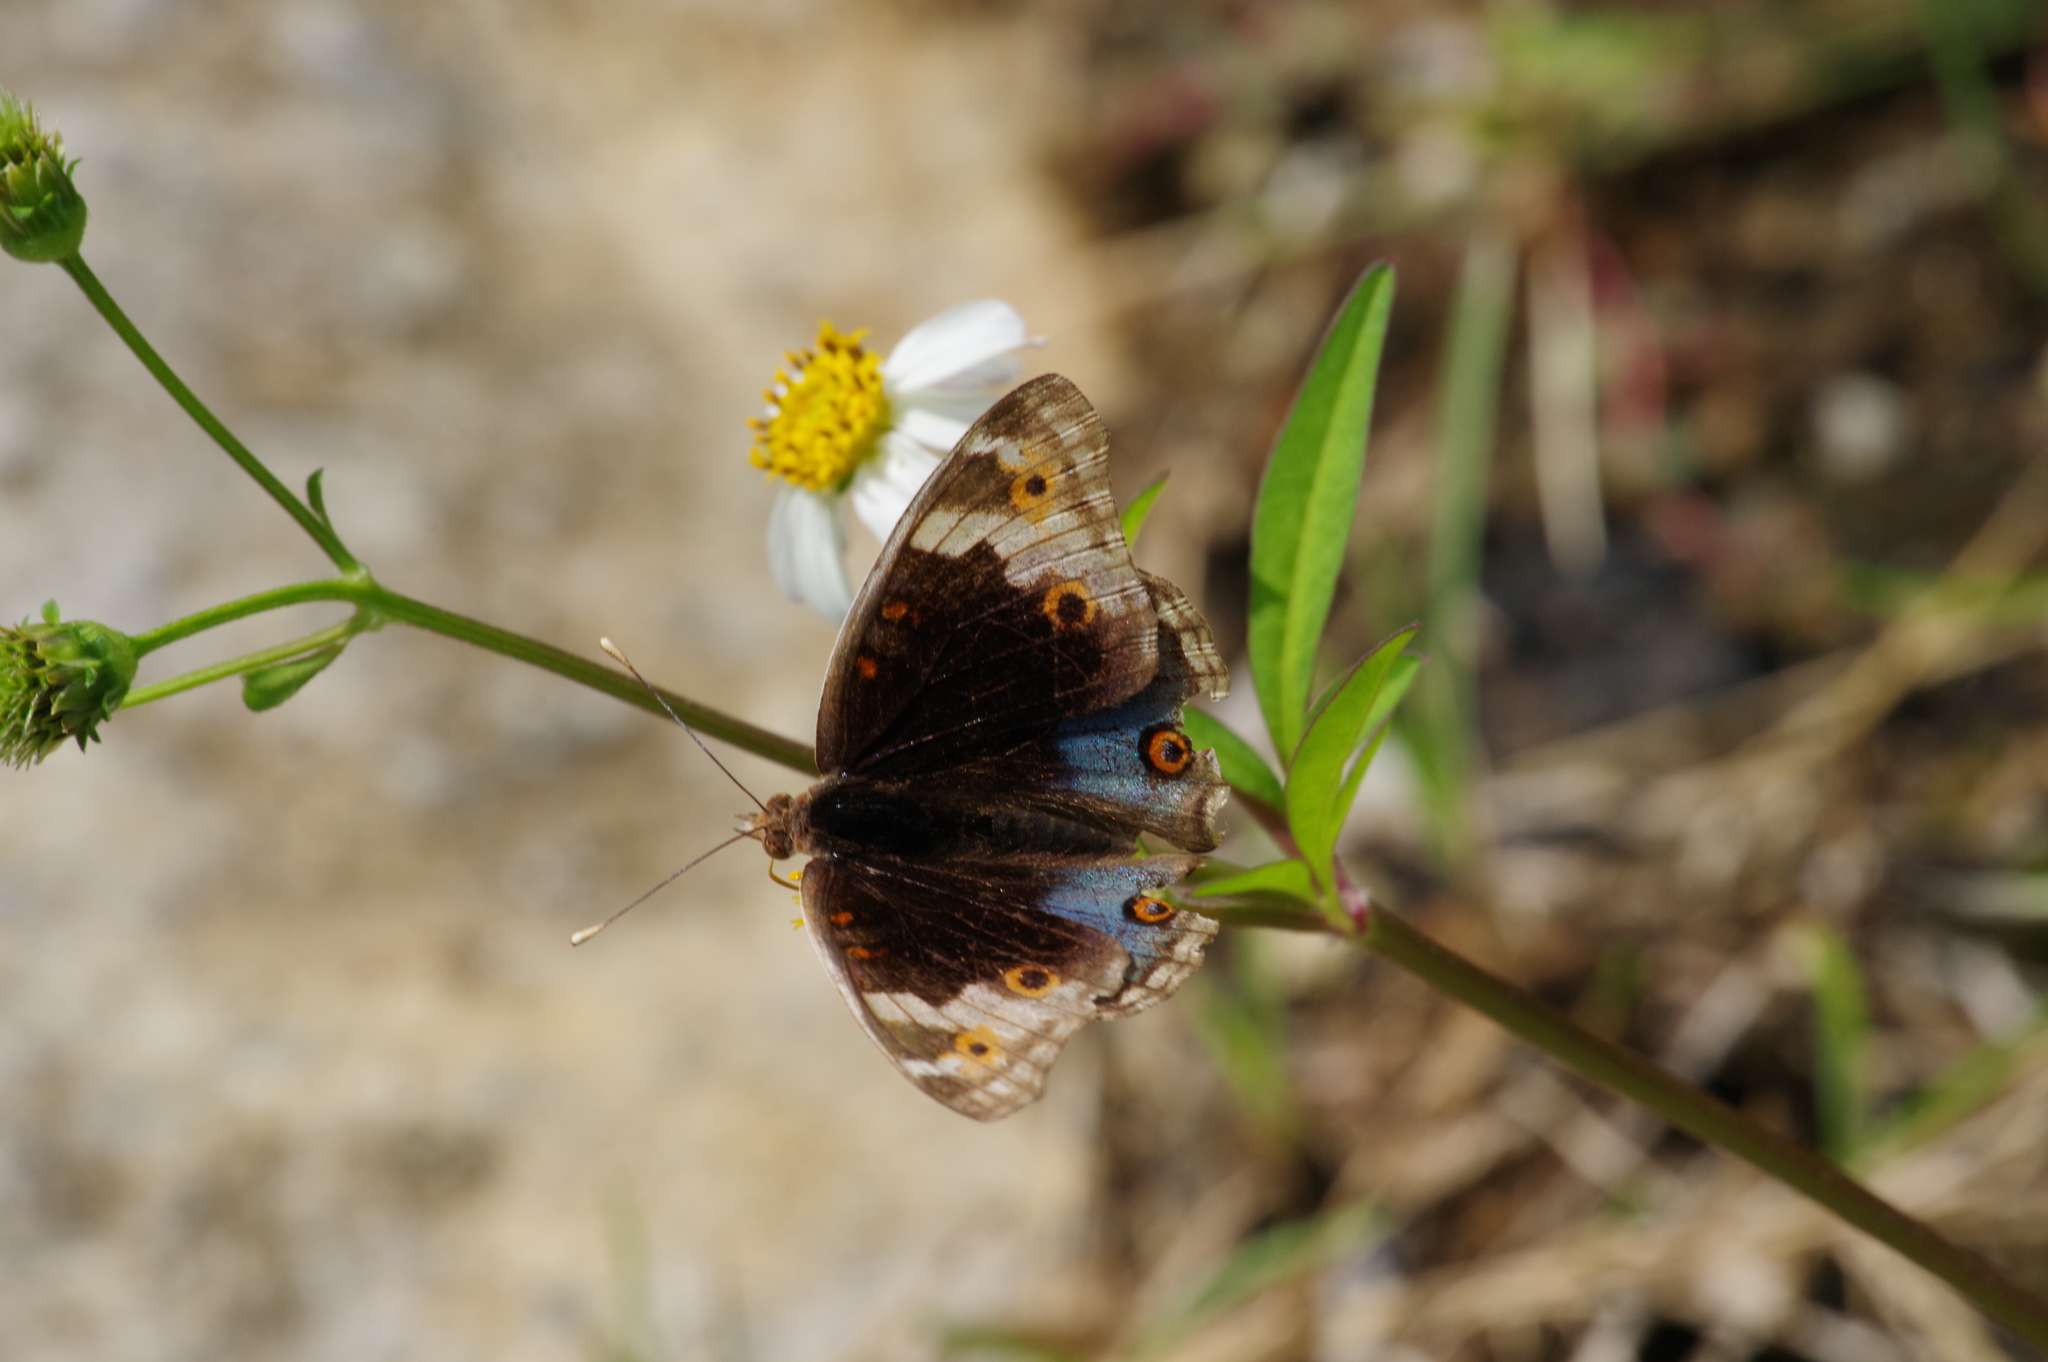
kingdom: Animalia
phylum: Arthropoda
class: Insecta
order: Lepidoptera
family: Nymphalidae
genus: Junonia
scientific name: Junonia orithya
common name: Blue pansy
